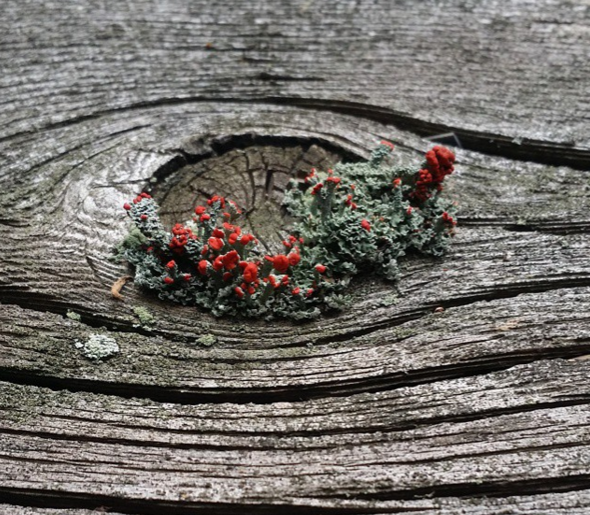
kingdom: Fungi
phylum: Ascomycota
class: Lecanoromycetes
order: Lecanorales
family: Cladoniaceae
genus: Cladonia
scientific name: Cladonia cristatella
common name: British soldier lichen
